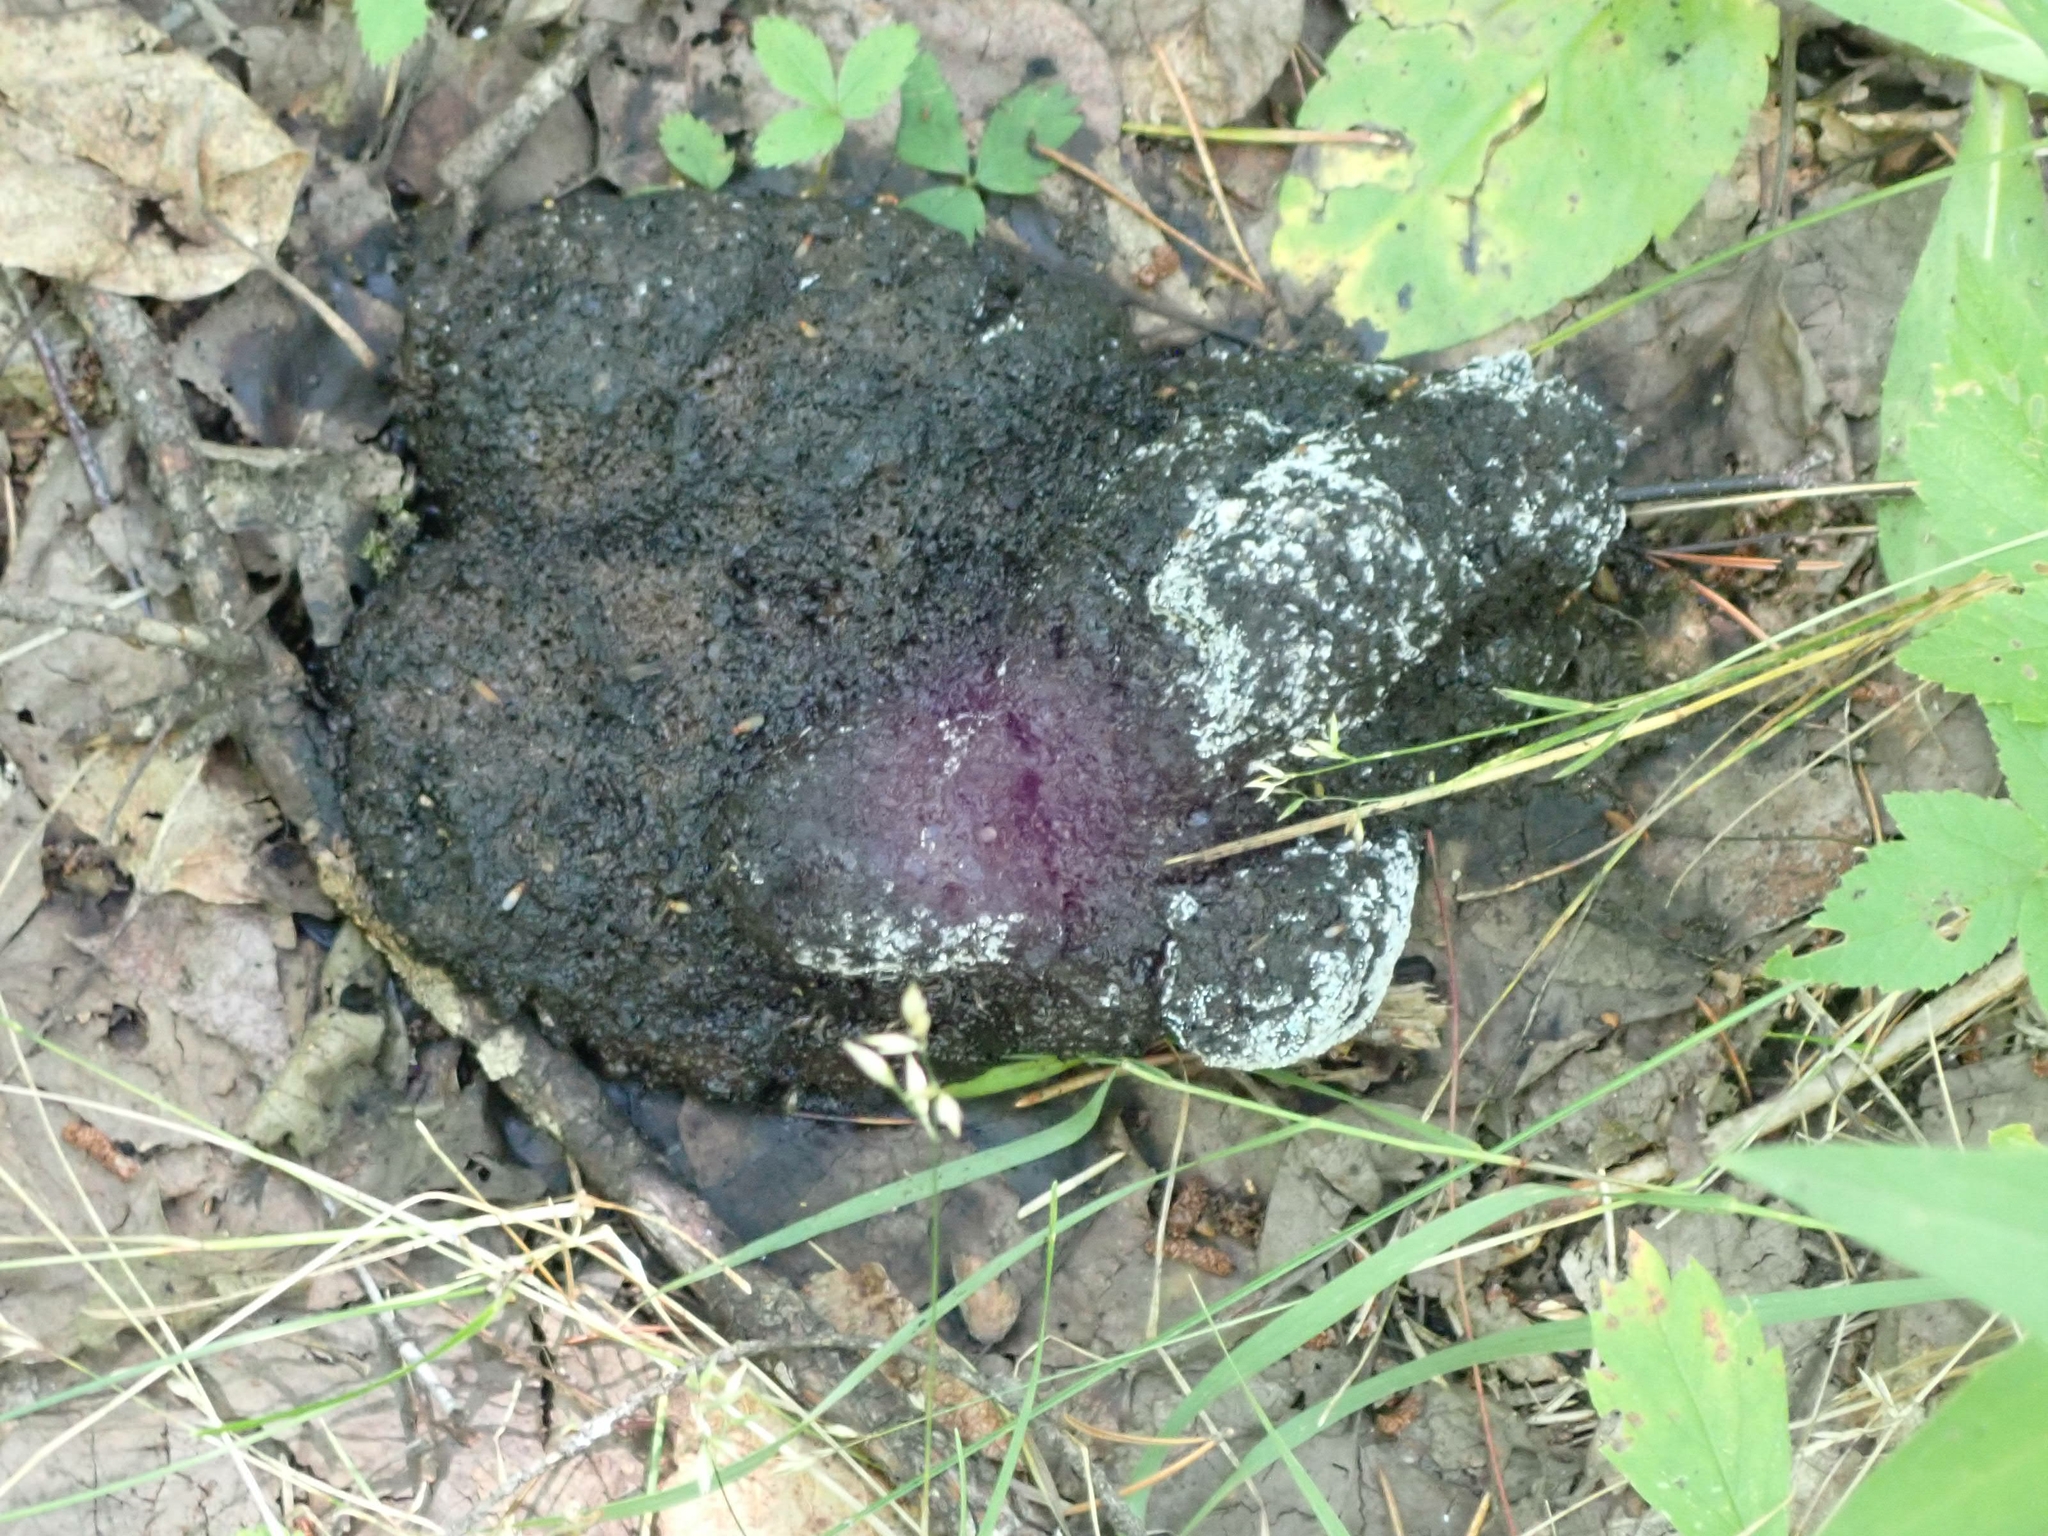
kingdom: Animalia
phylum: Chordata
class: Mammalia
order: Carnivora
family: Ursidae
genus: Ursus
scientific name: Ursus americanus
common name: American black bear
